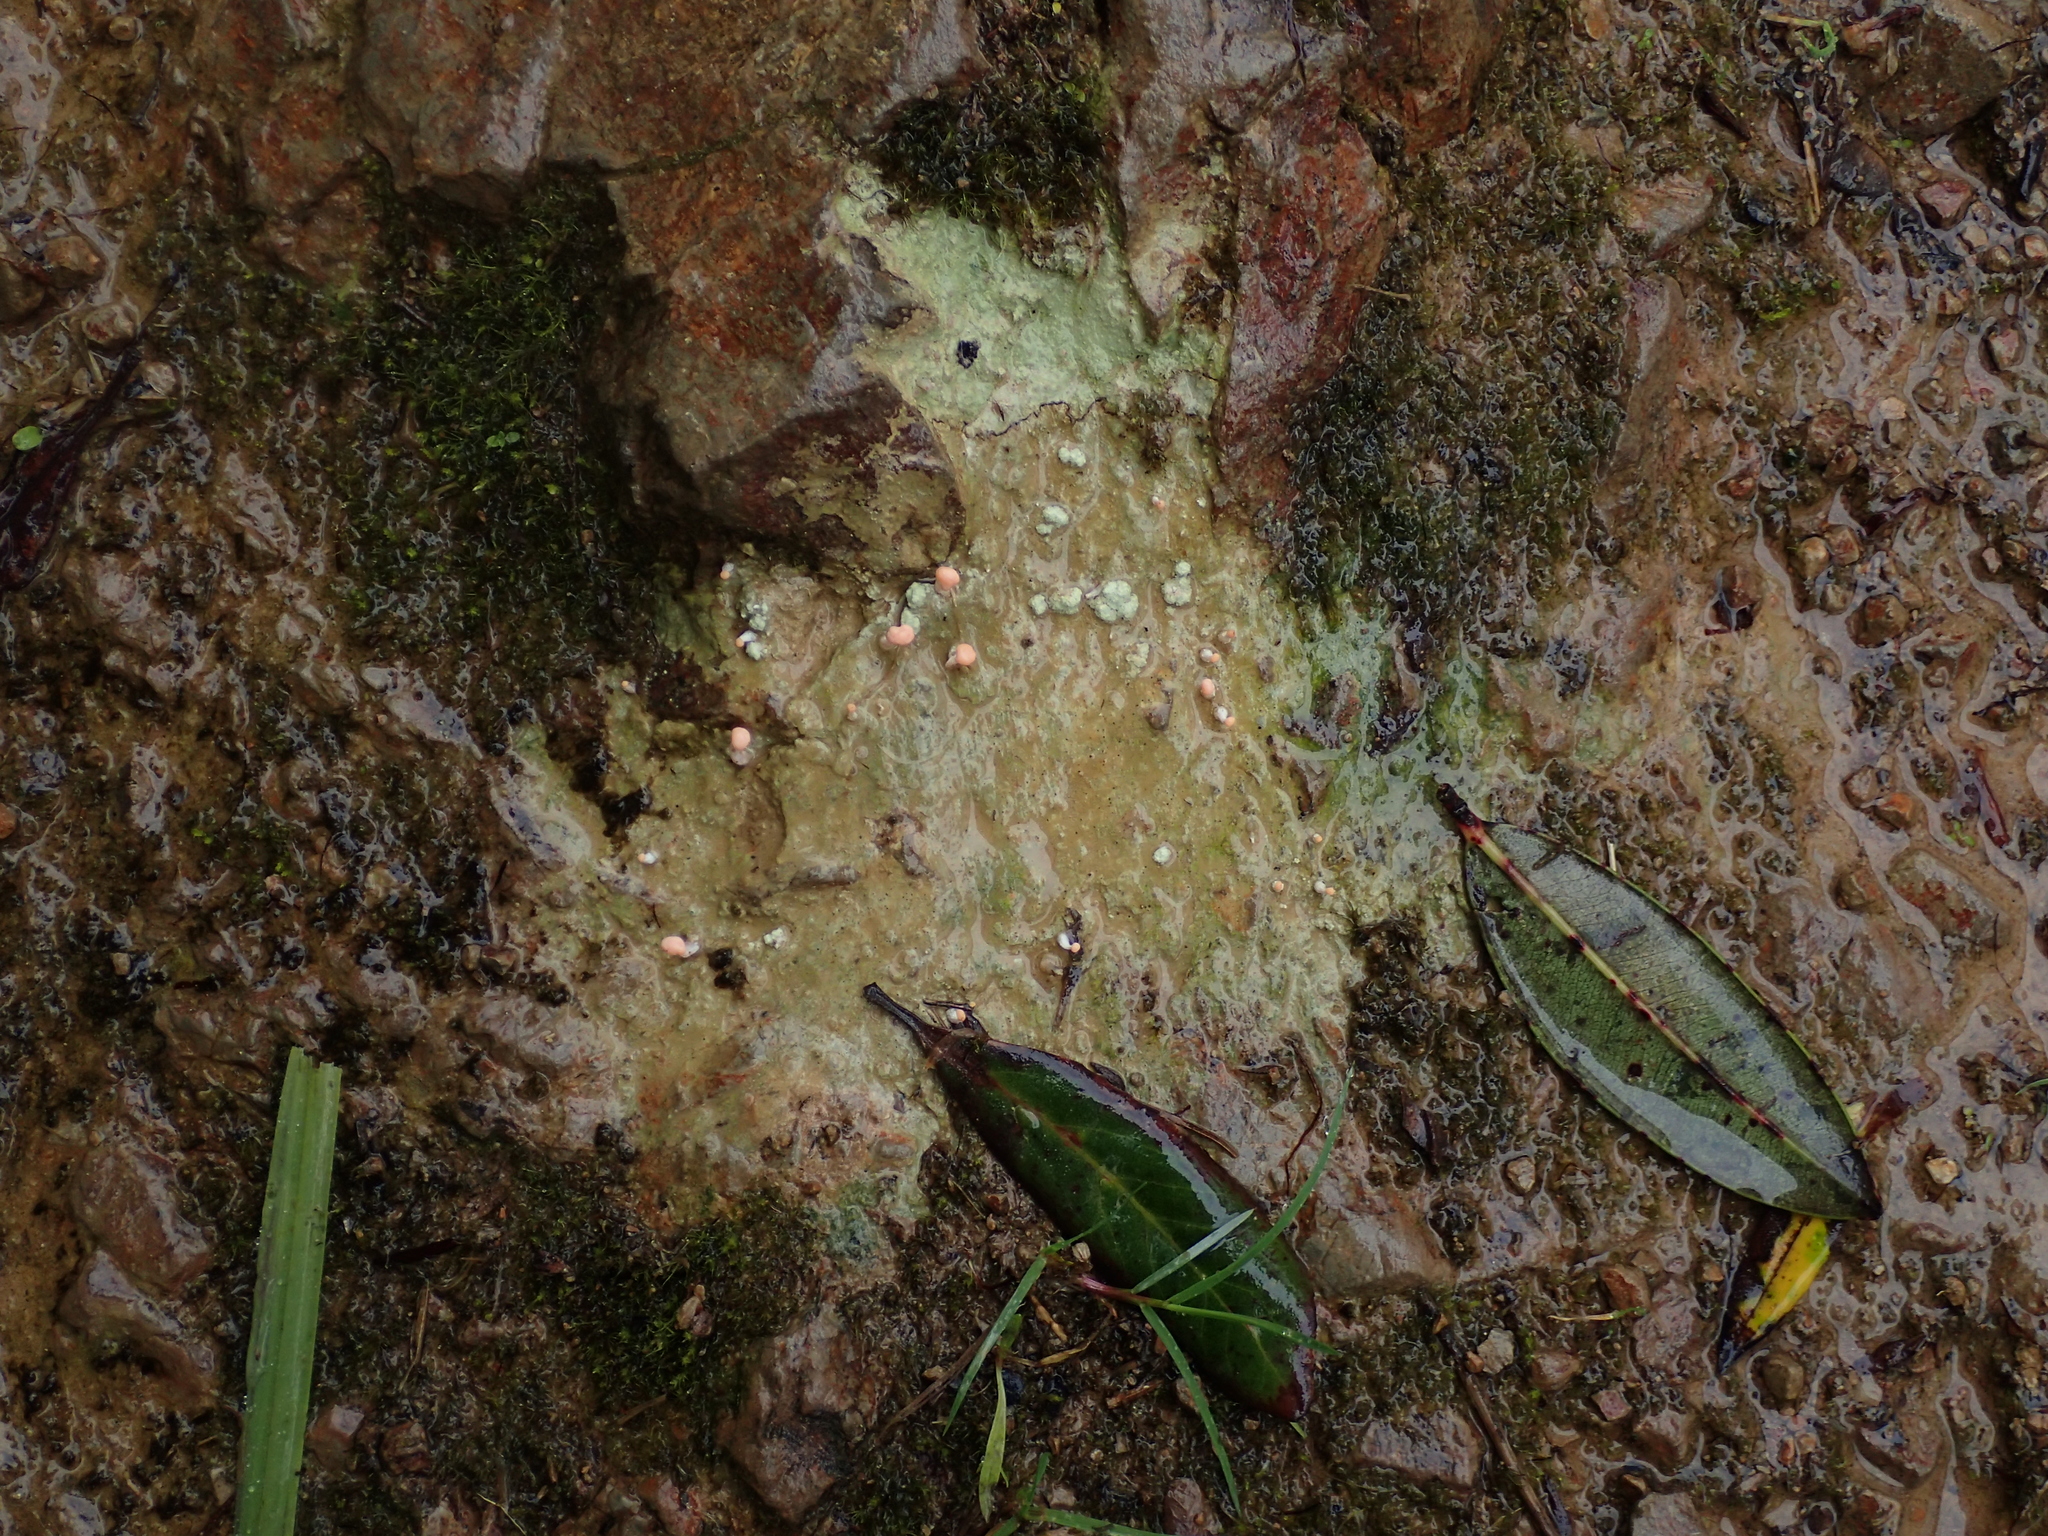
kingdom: Fungi
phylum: Ascomycota
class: Lecanoromycetes
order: Pertusariales
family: Icmadophilaceae
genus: Dibaeis
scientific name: Dibaeis arcuata
